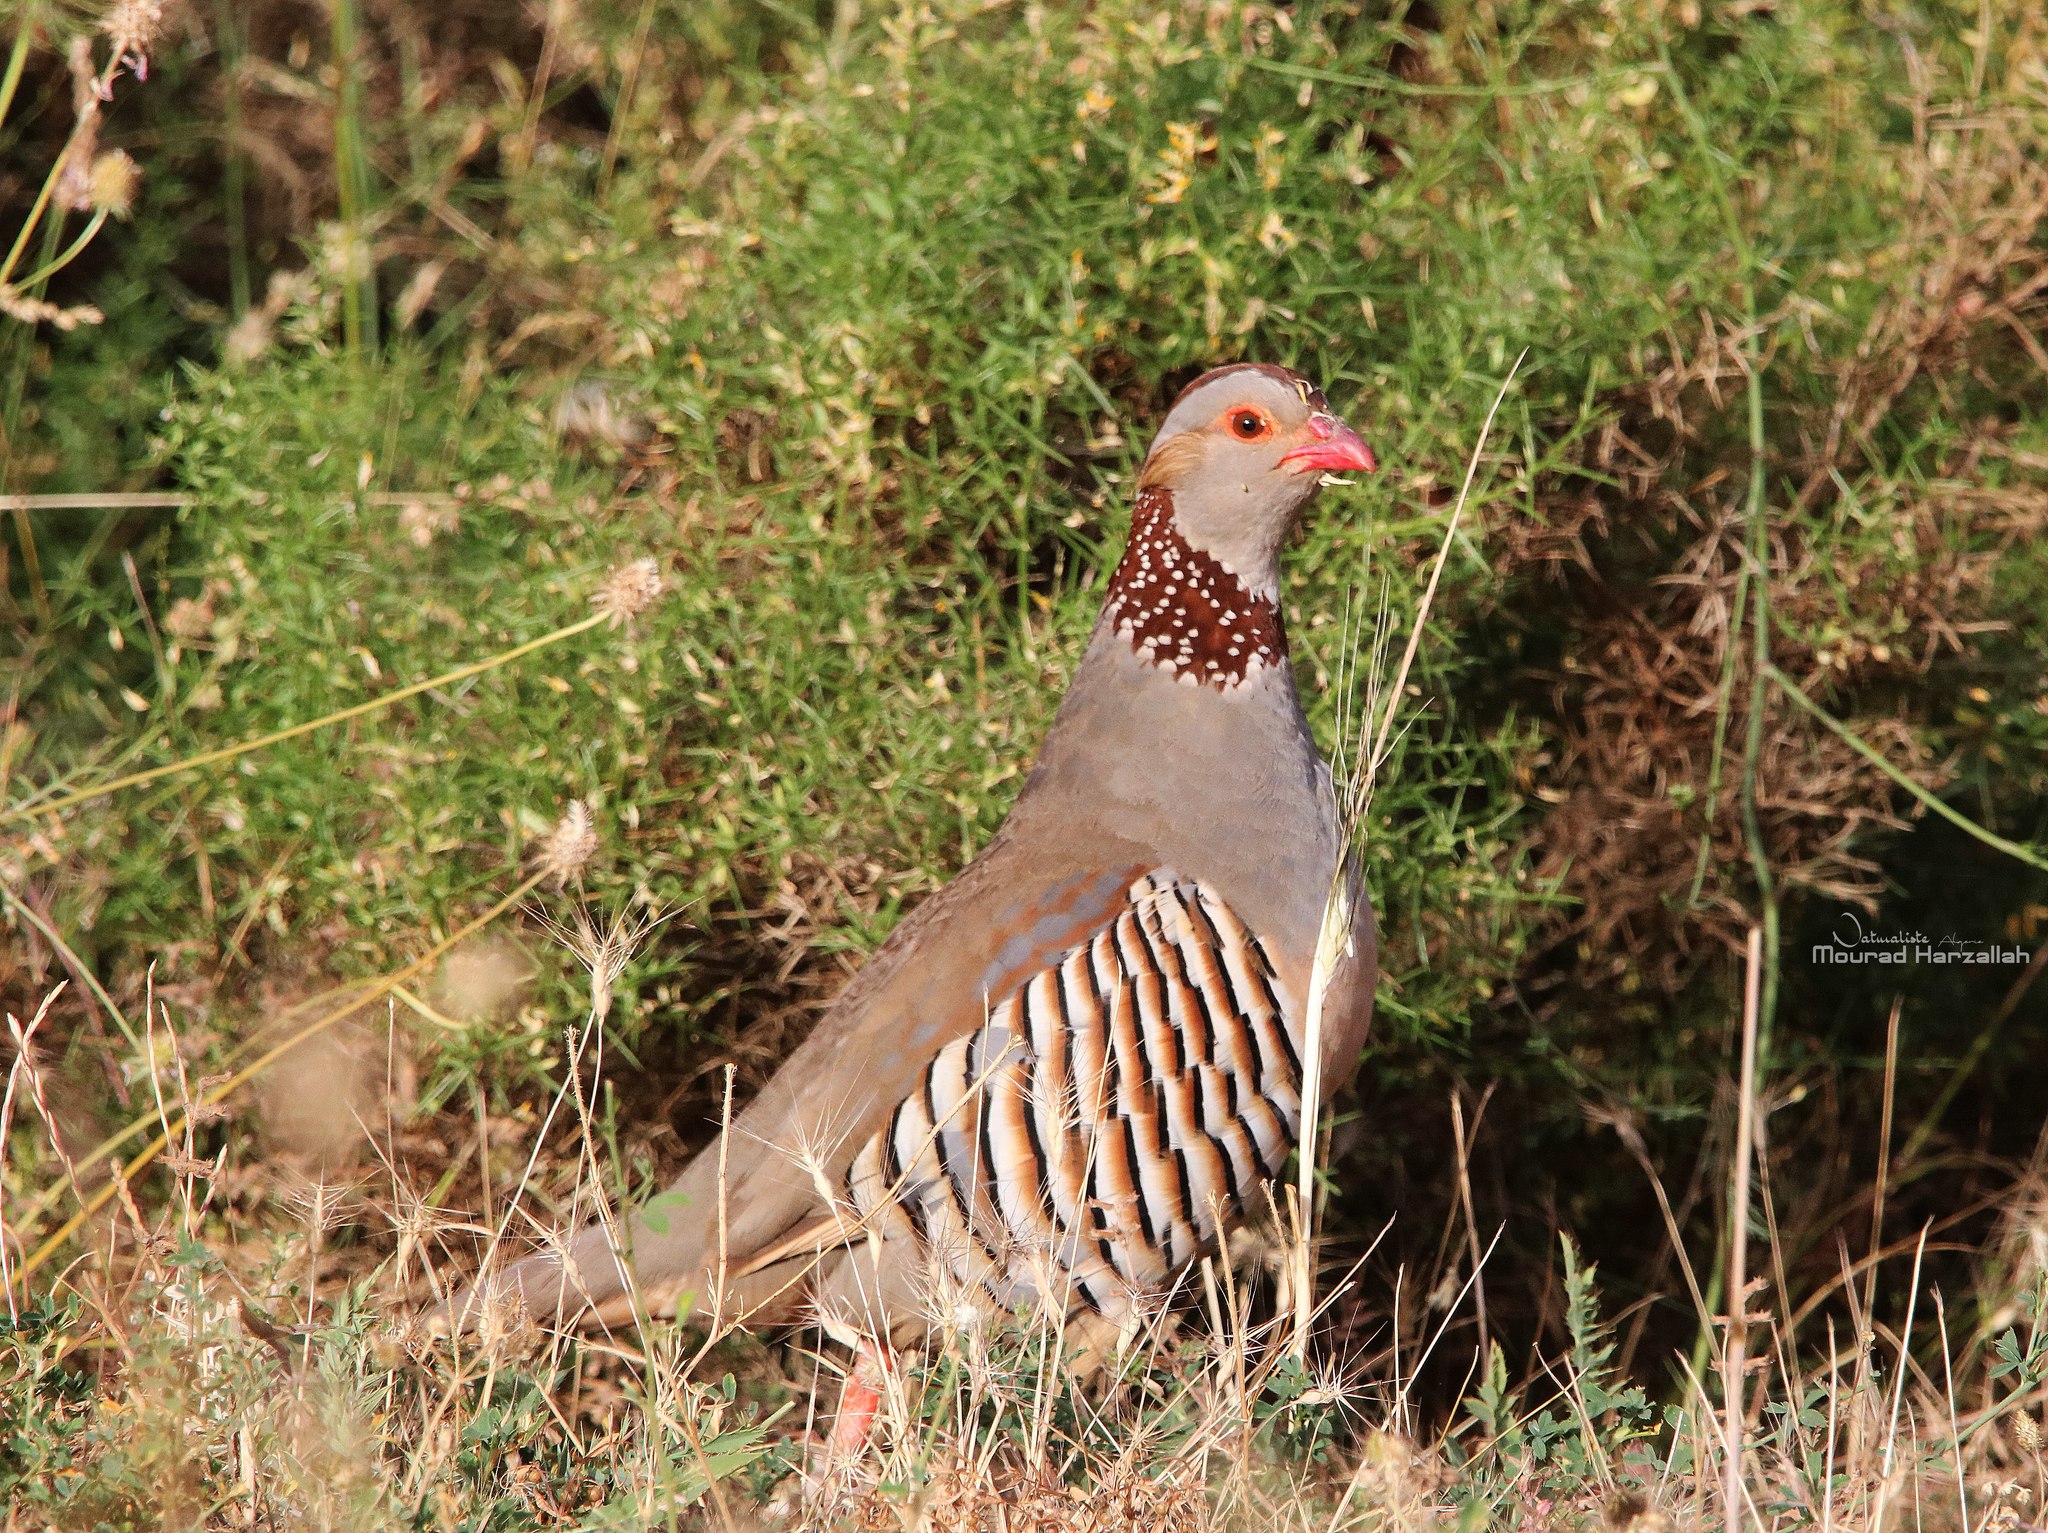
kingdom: Animalia
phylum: Chordata
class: Aves
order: Galliformes
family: Phasianidae
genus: Alectoris
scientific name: Alectoris barbara
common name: Barbary partridge
